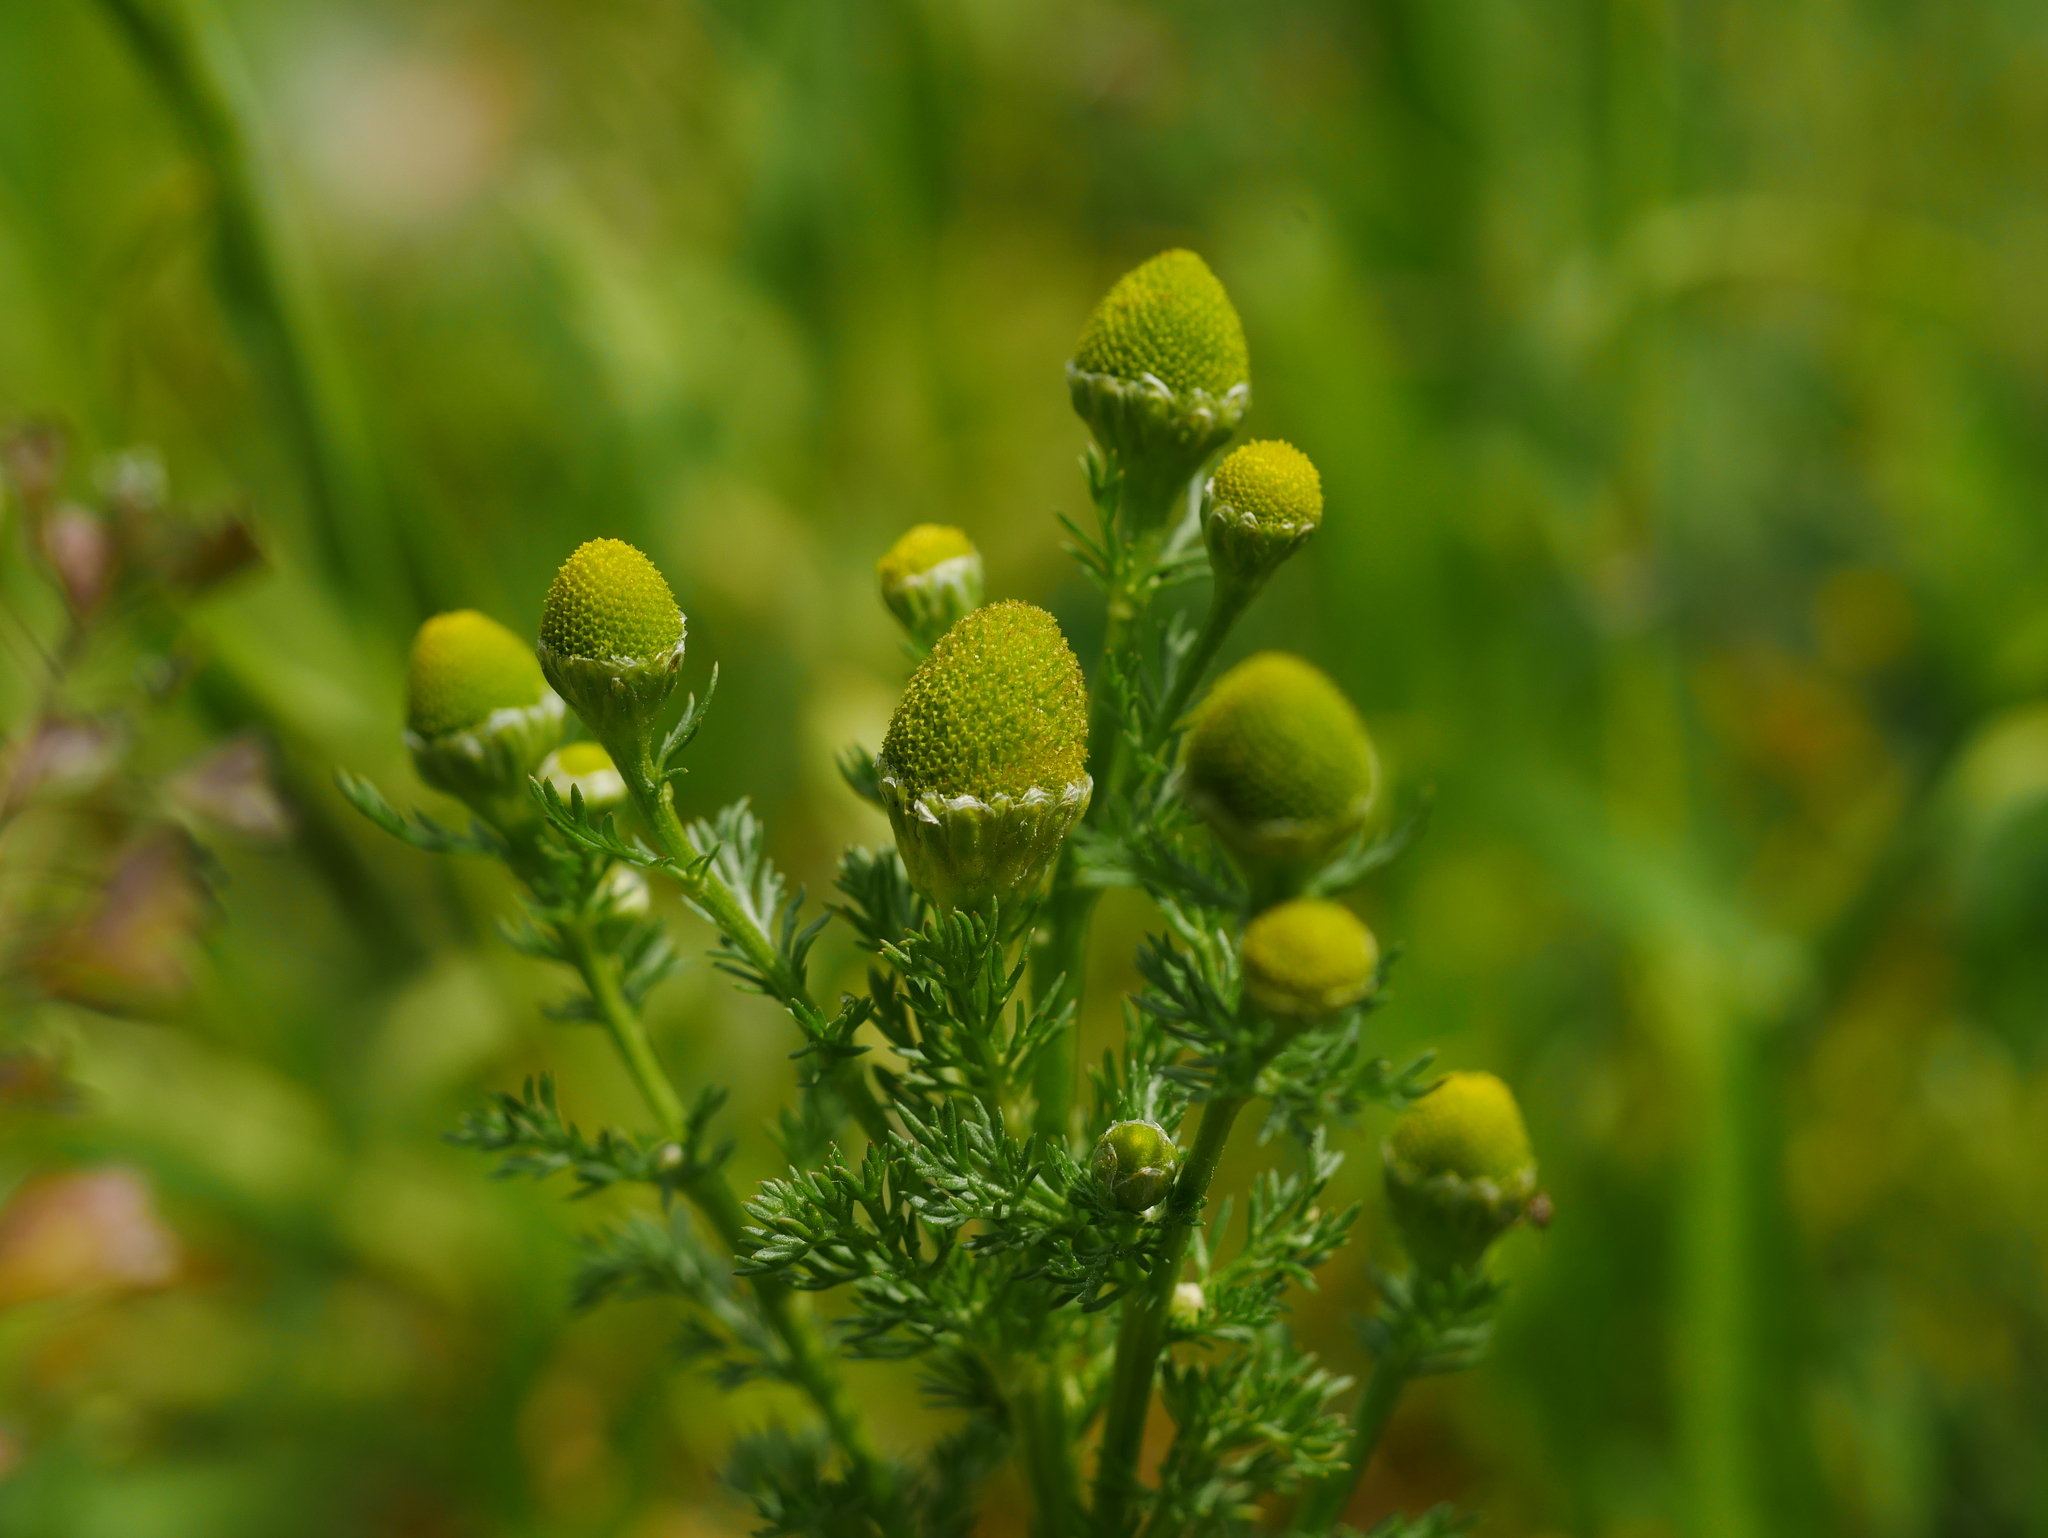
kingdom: Plantae
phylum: Tracheophyta
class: Magnoliopsida
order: Asterales
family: Asteraceae
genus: Matricaria
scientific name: Matricaria discoidea
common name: Disc mayweed
